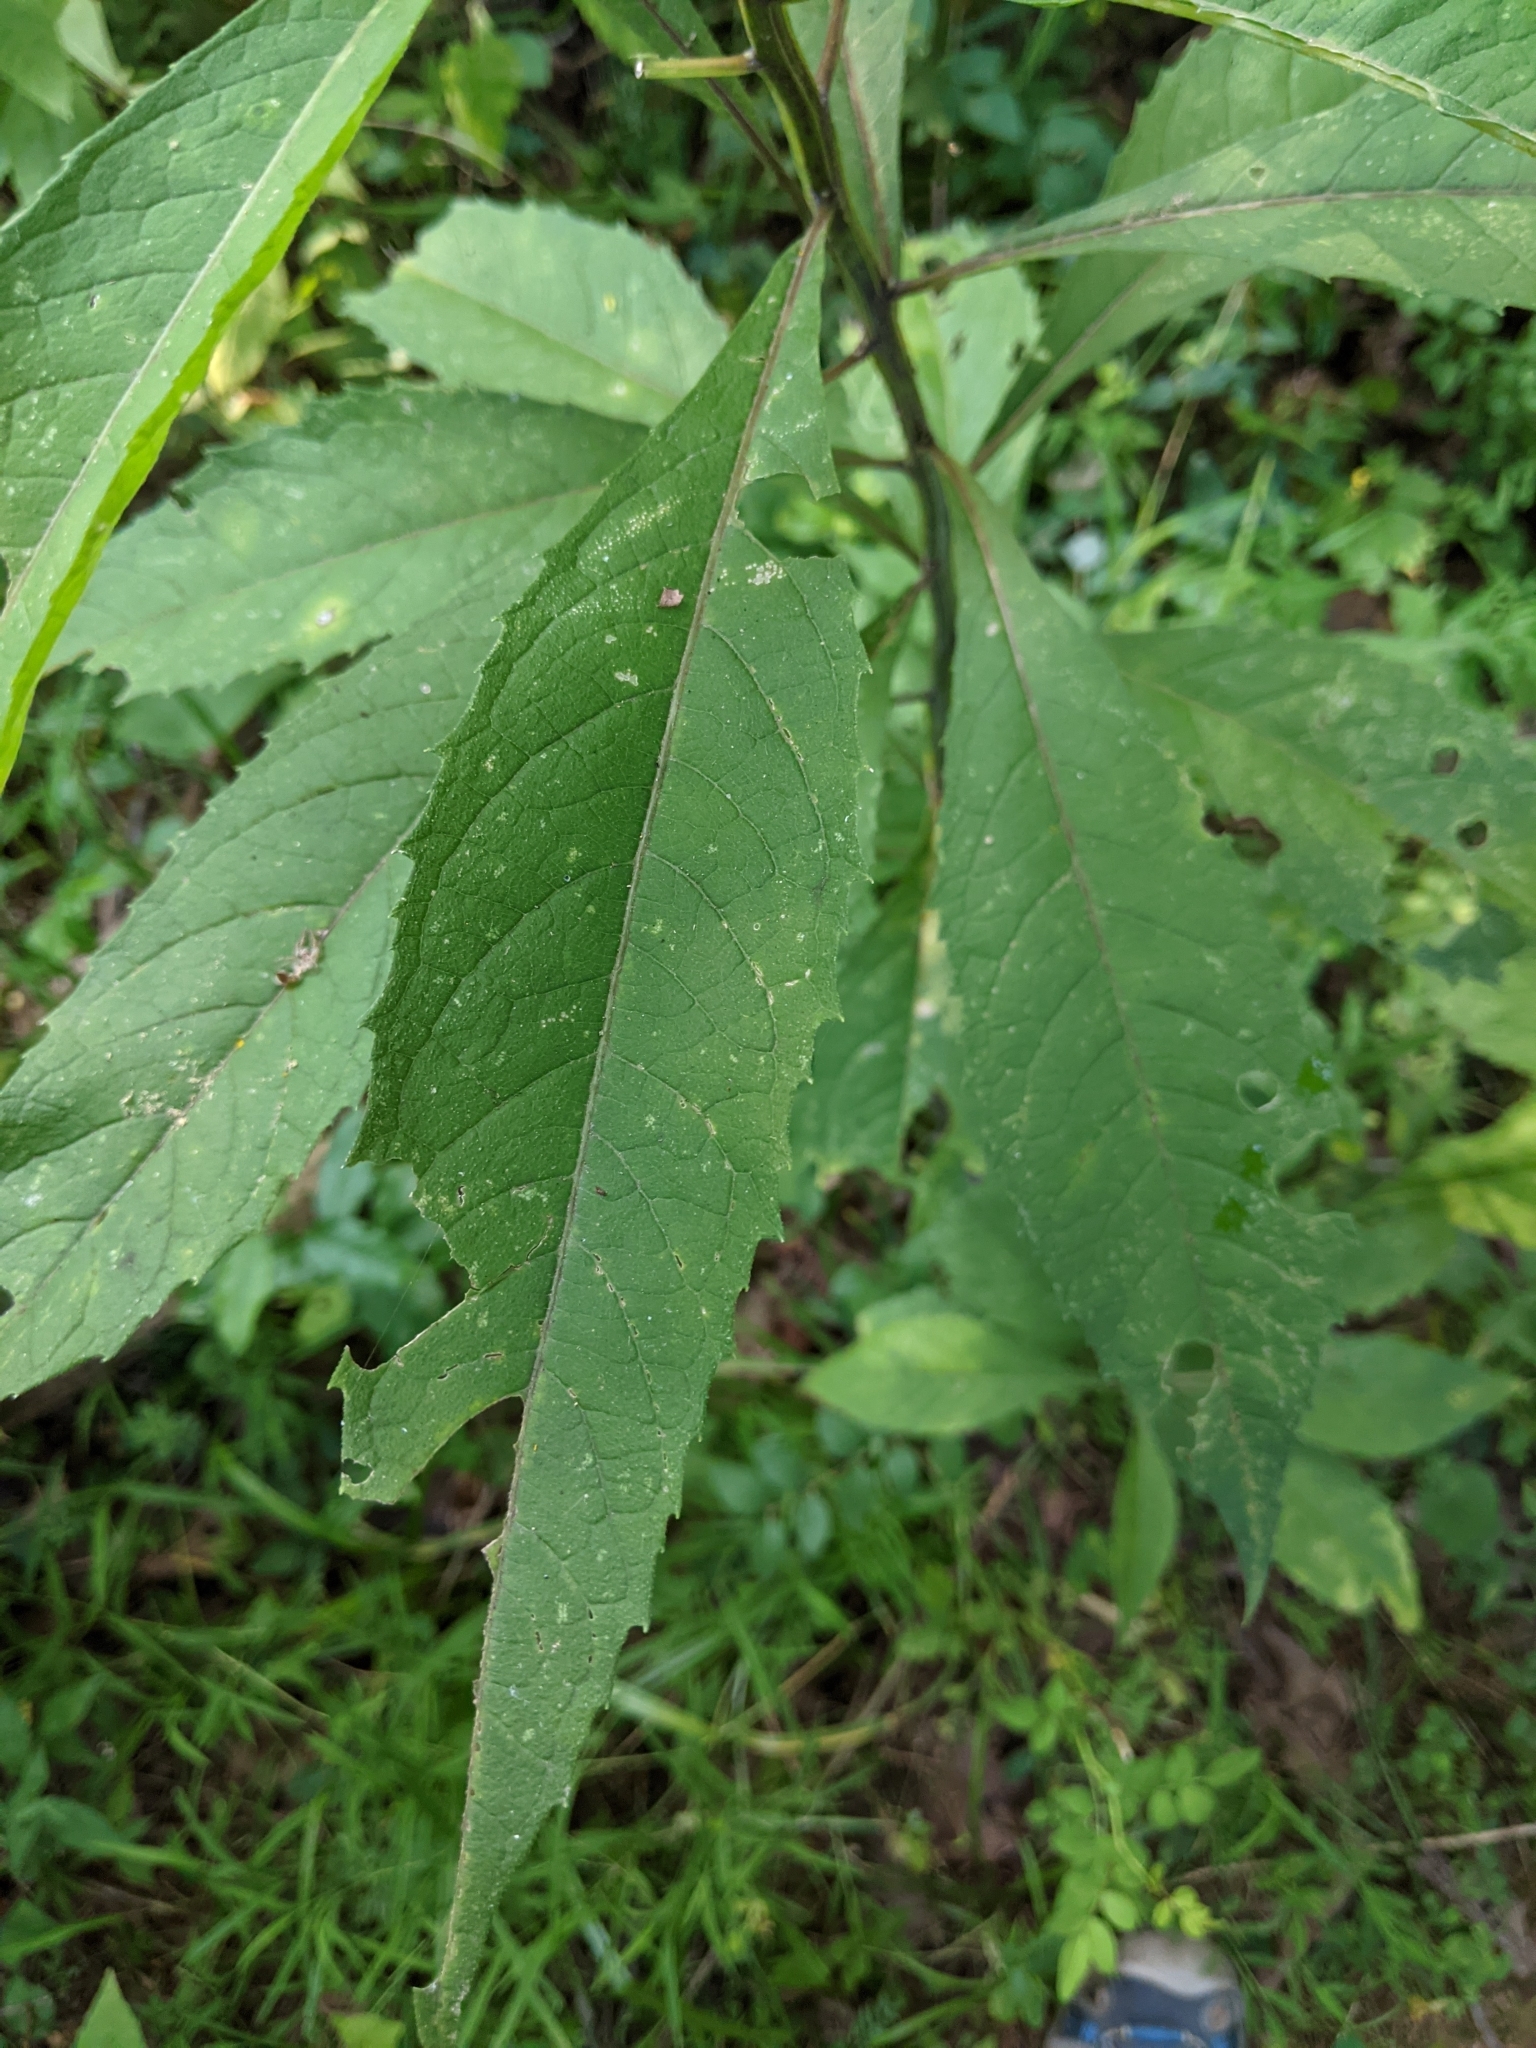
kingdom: Plantae
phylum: Tracheophyta
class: Magnoliopsida
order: Asterales
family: Asteraceae
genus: Verbesina
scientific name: Verbesina alternifolia
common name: Wingstem
